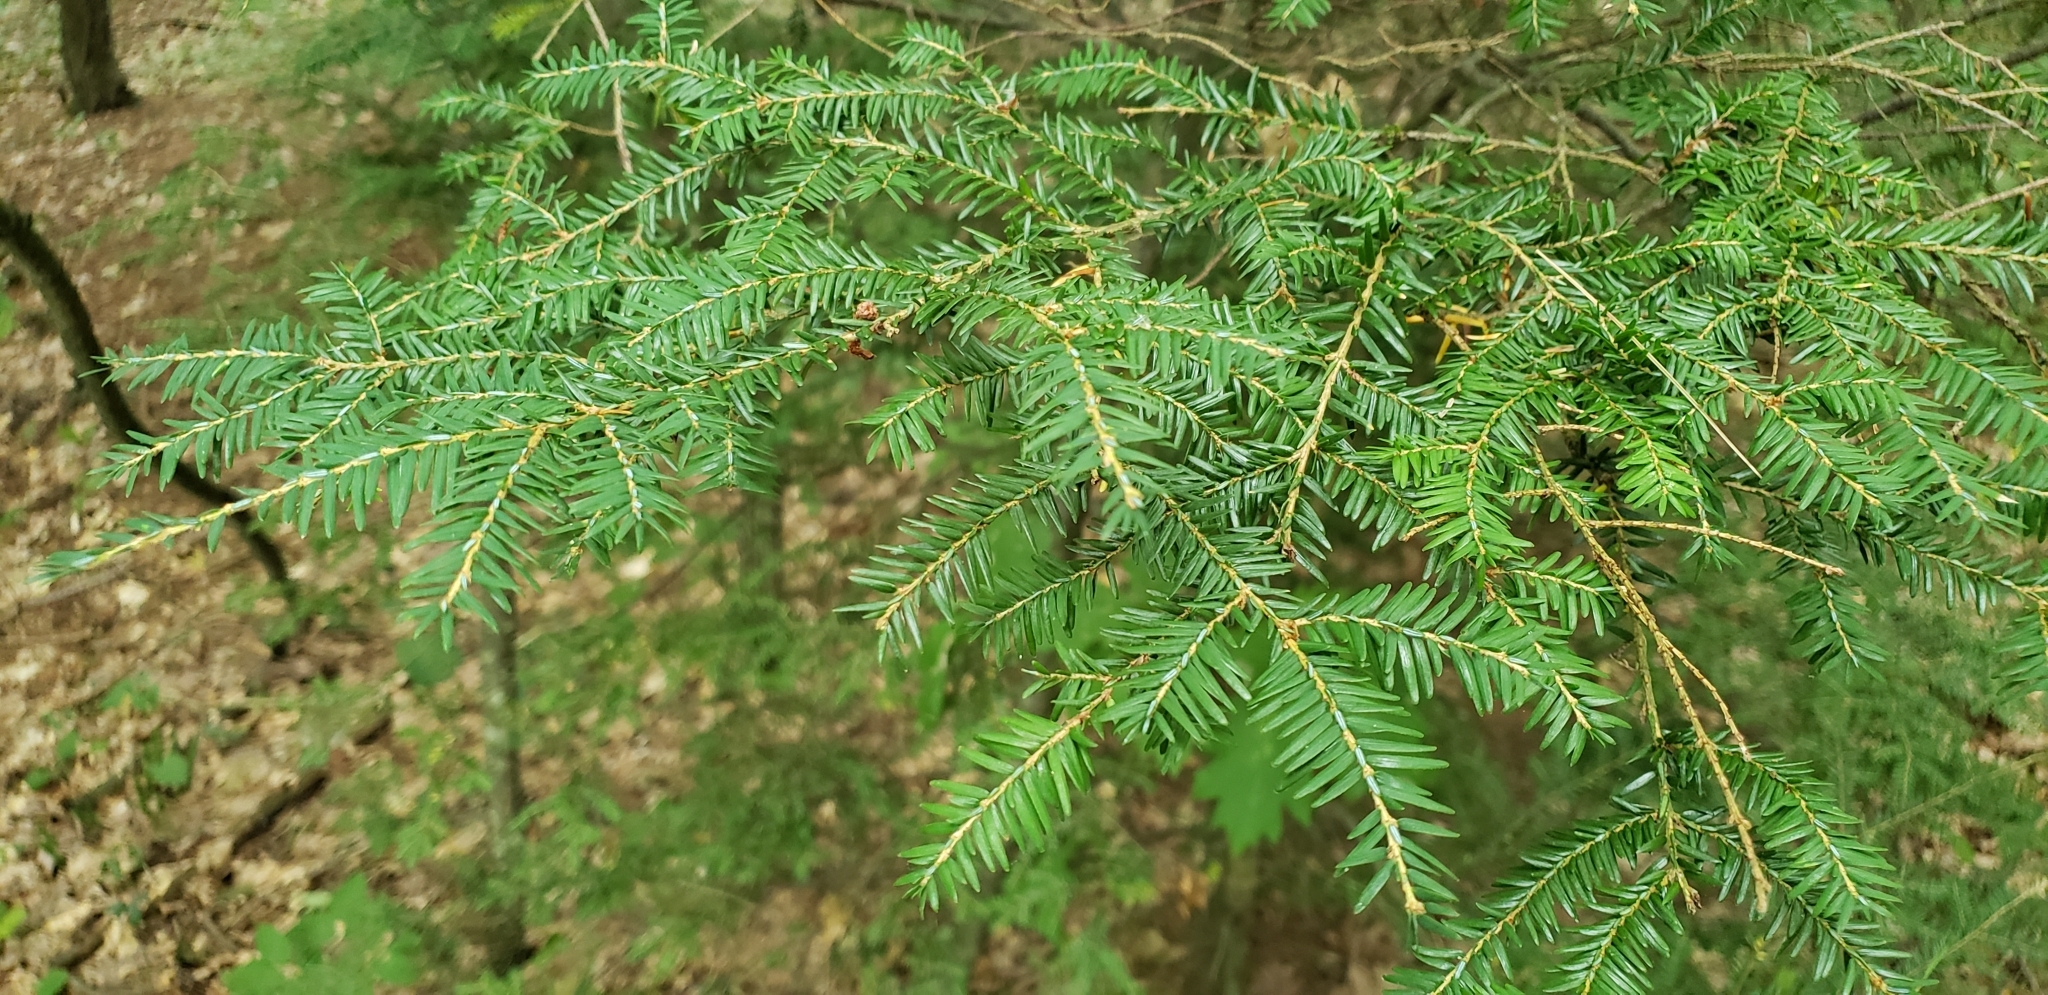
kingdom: Plantae
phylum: Tracheophyta
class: Pinopsida
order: Pinales
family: Pinaceae
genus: Tsuga
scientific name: Tsuga canadensis
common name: Eastern hemlock
